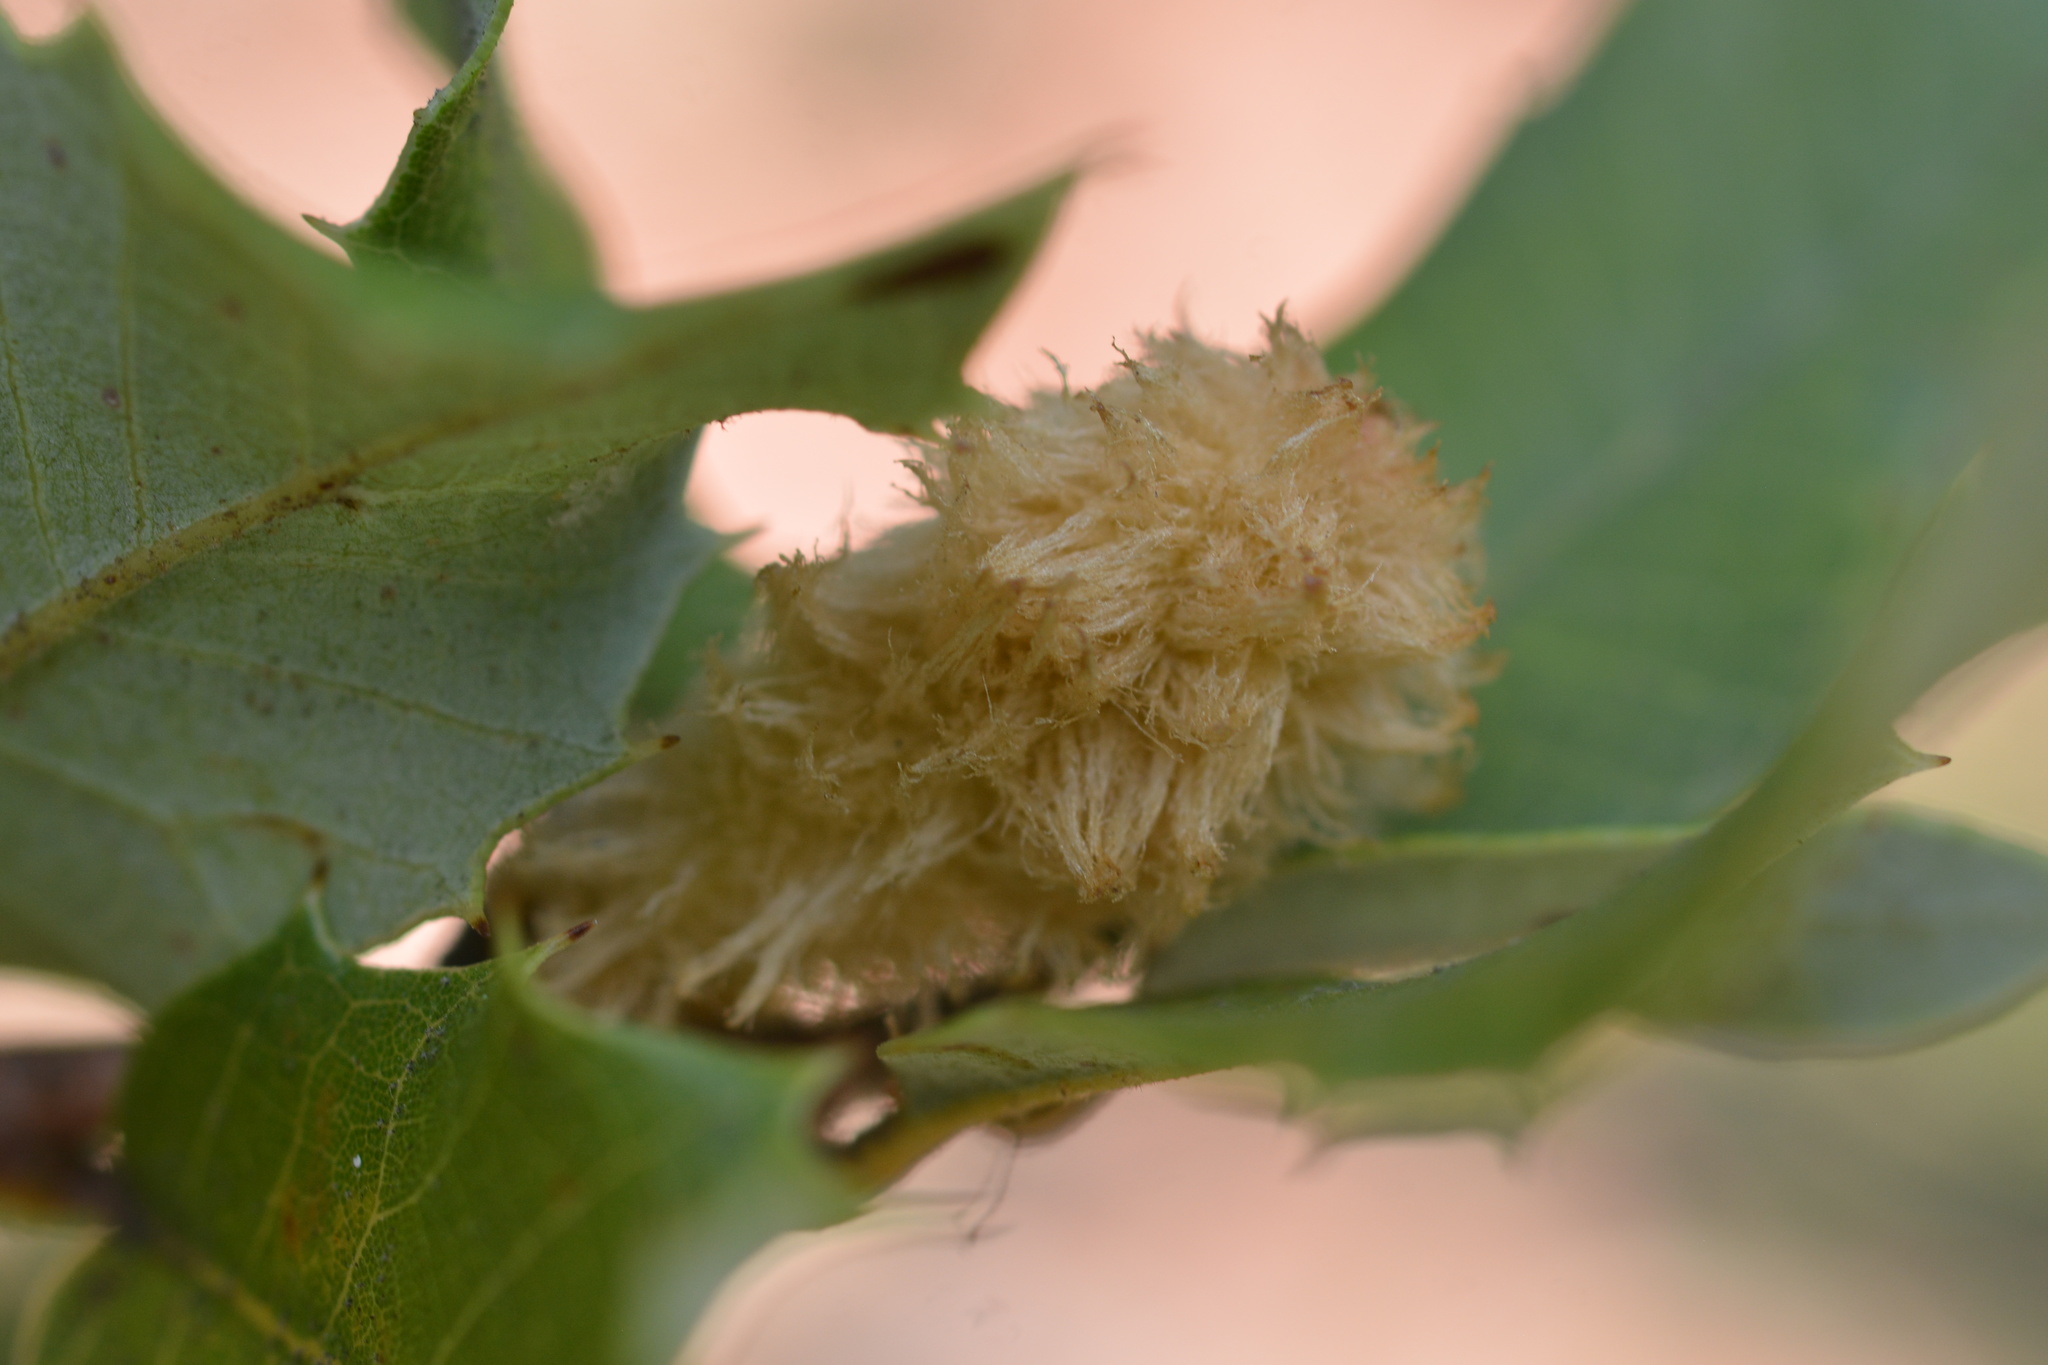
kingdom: Animalia
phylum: Arthropoda
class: Insecta
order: Hymenoptera
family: Cynipidae
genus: Heteroecus
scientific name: Heteroecus
